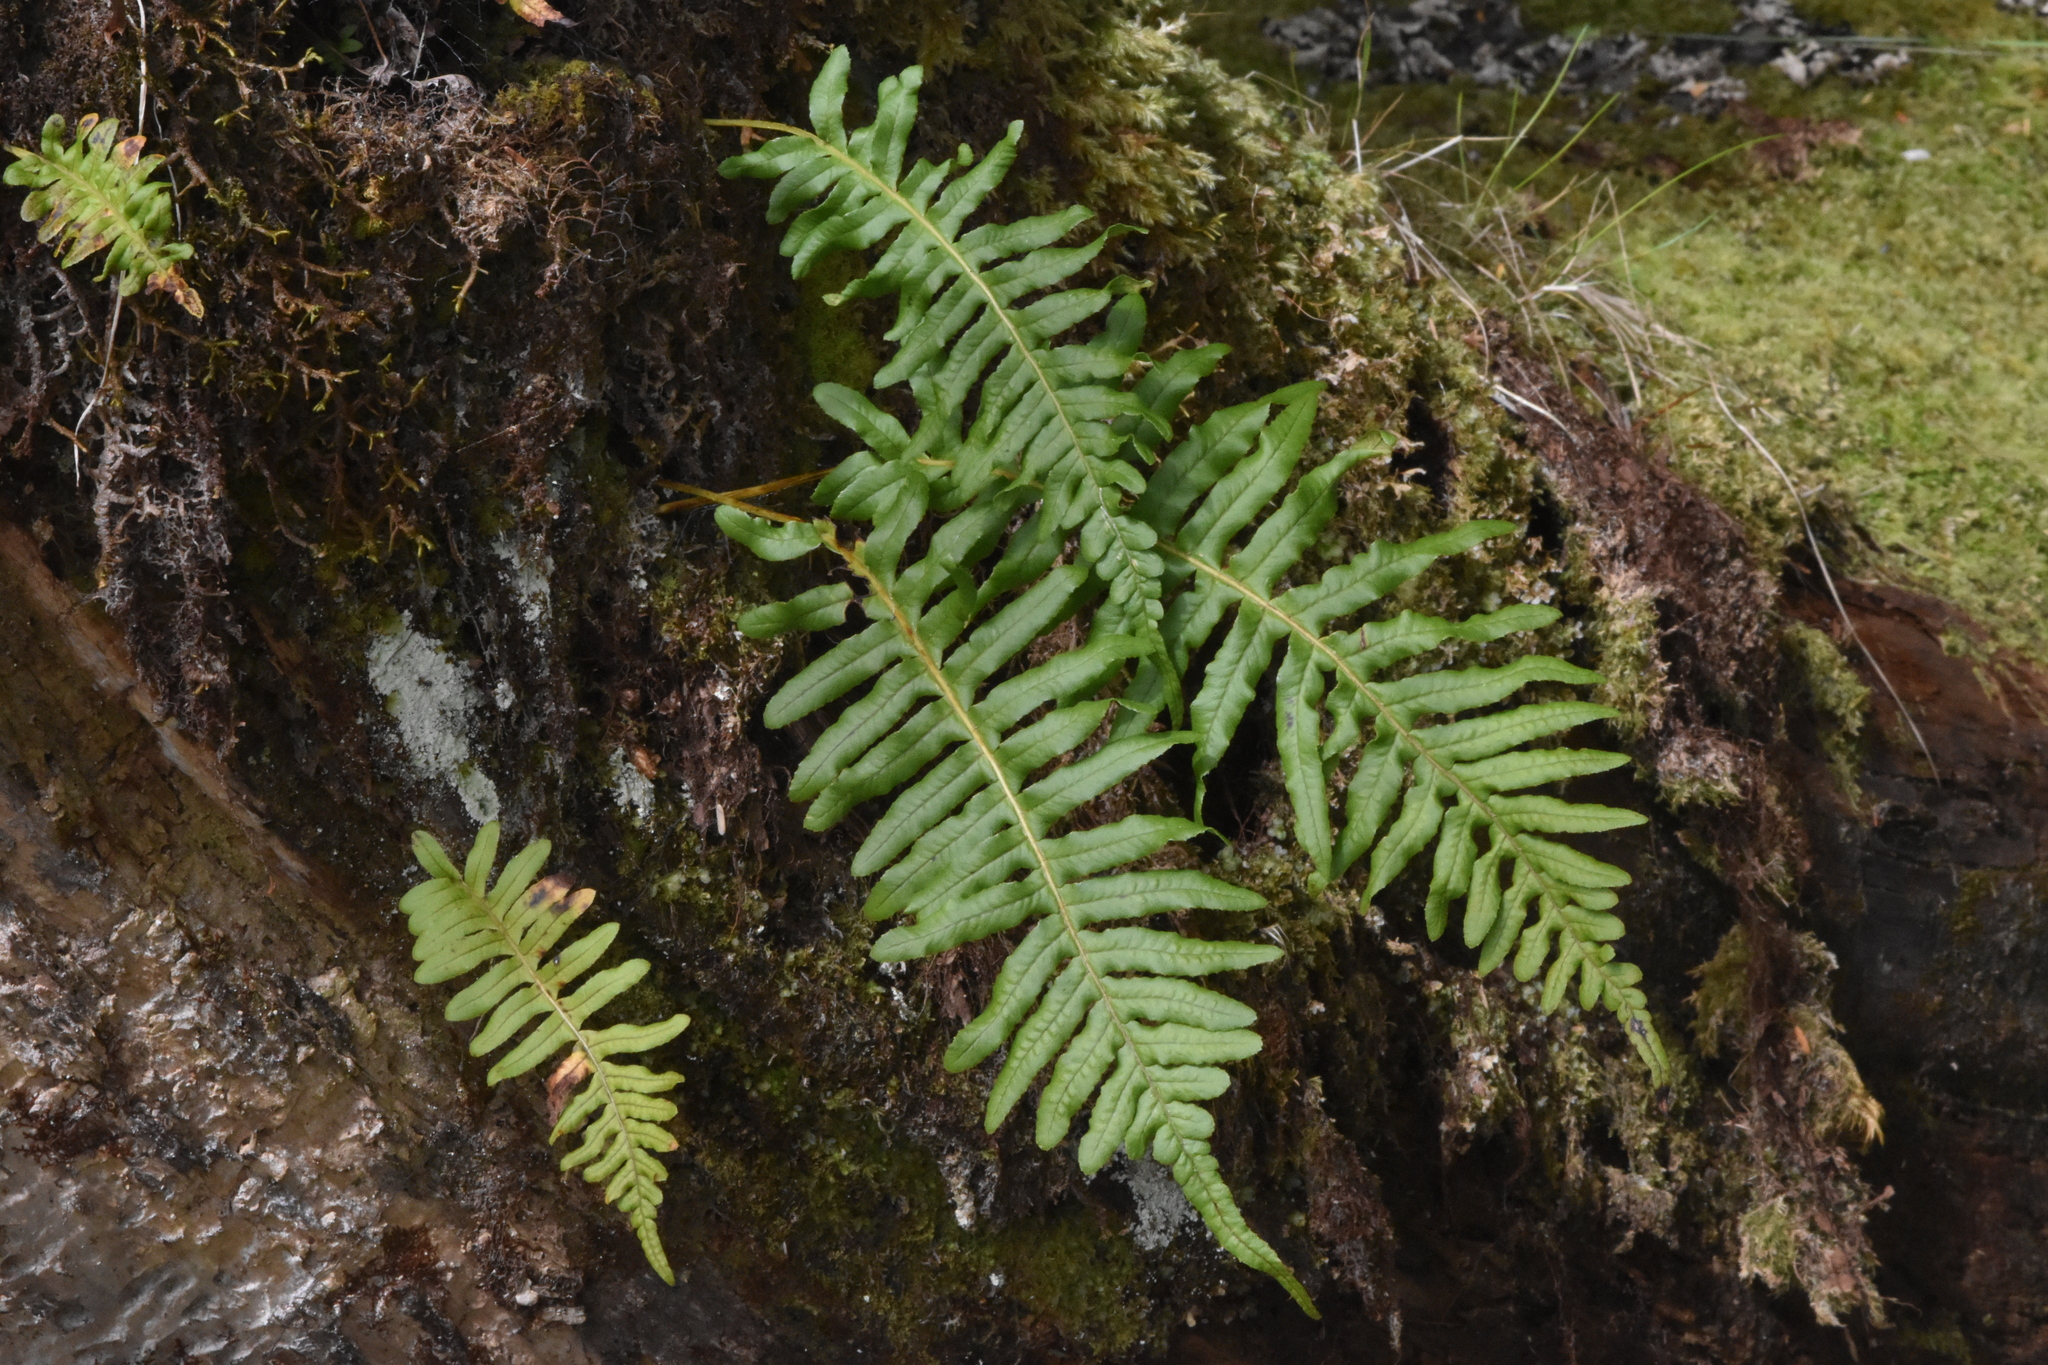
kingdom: Plantae
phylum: Tracheophyta
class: Polypodiopsida
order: Polypodiales
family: Polypodiaceae
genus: Polypodium
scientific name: Polypodium glycyrrhiza
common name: Licorice fern
